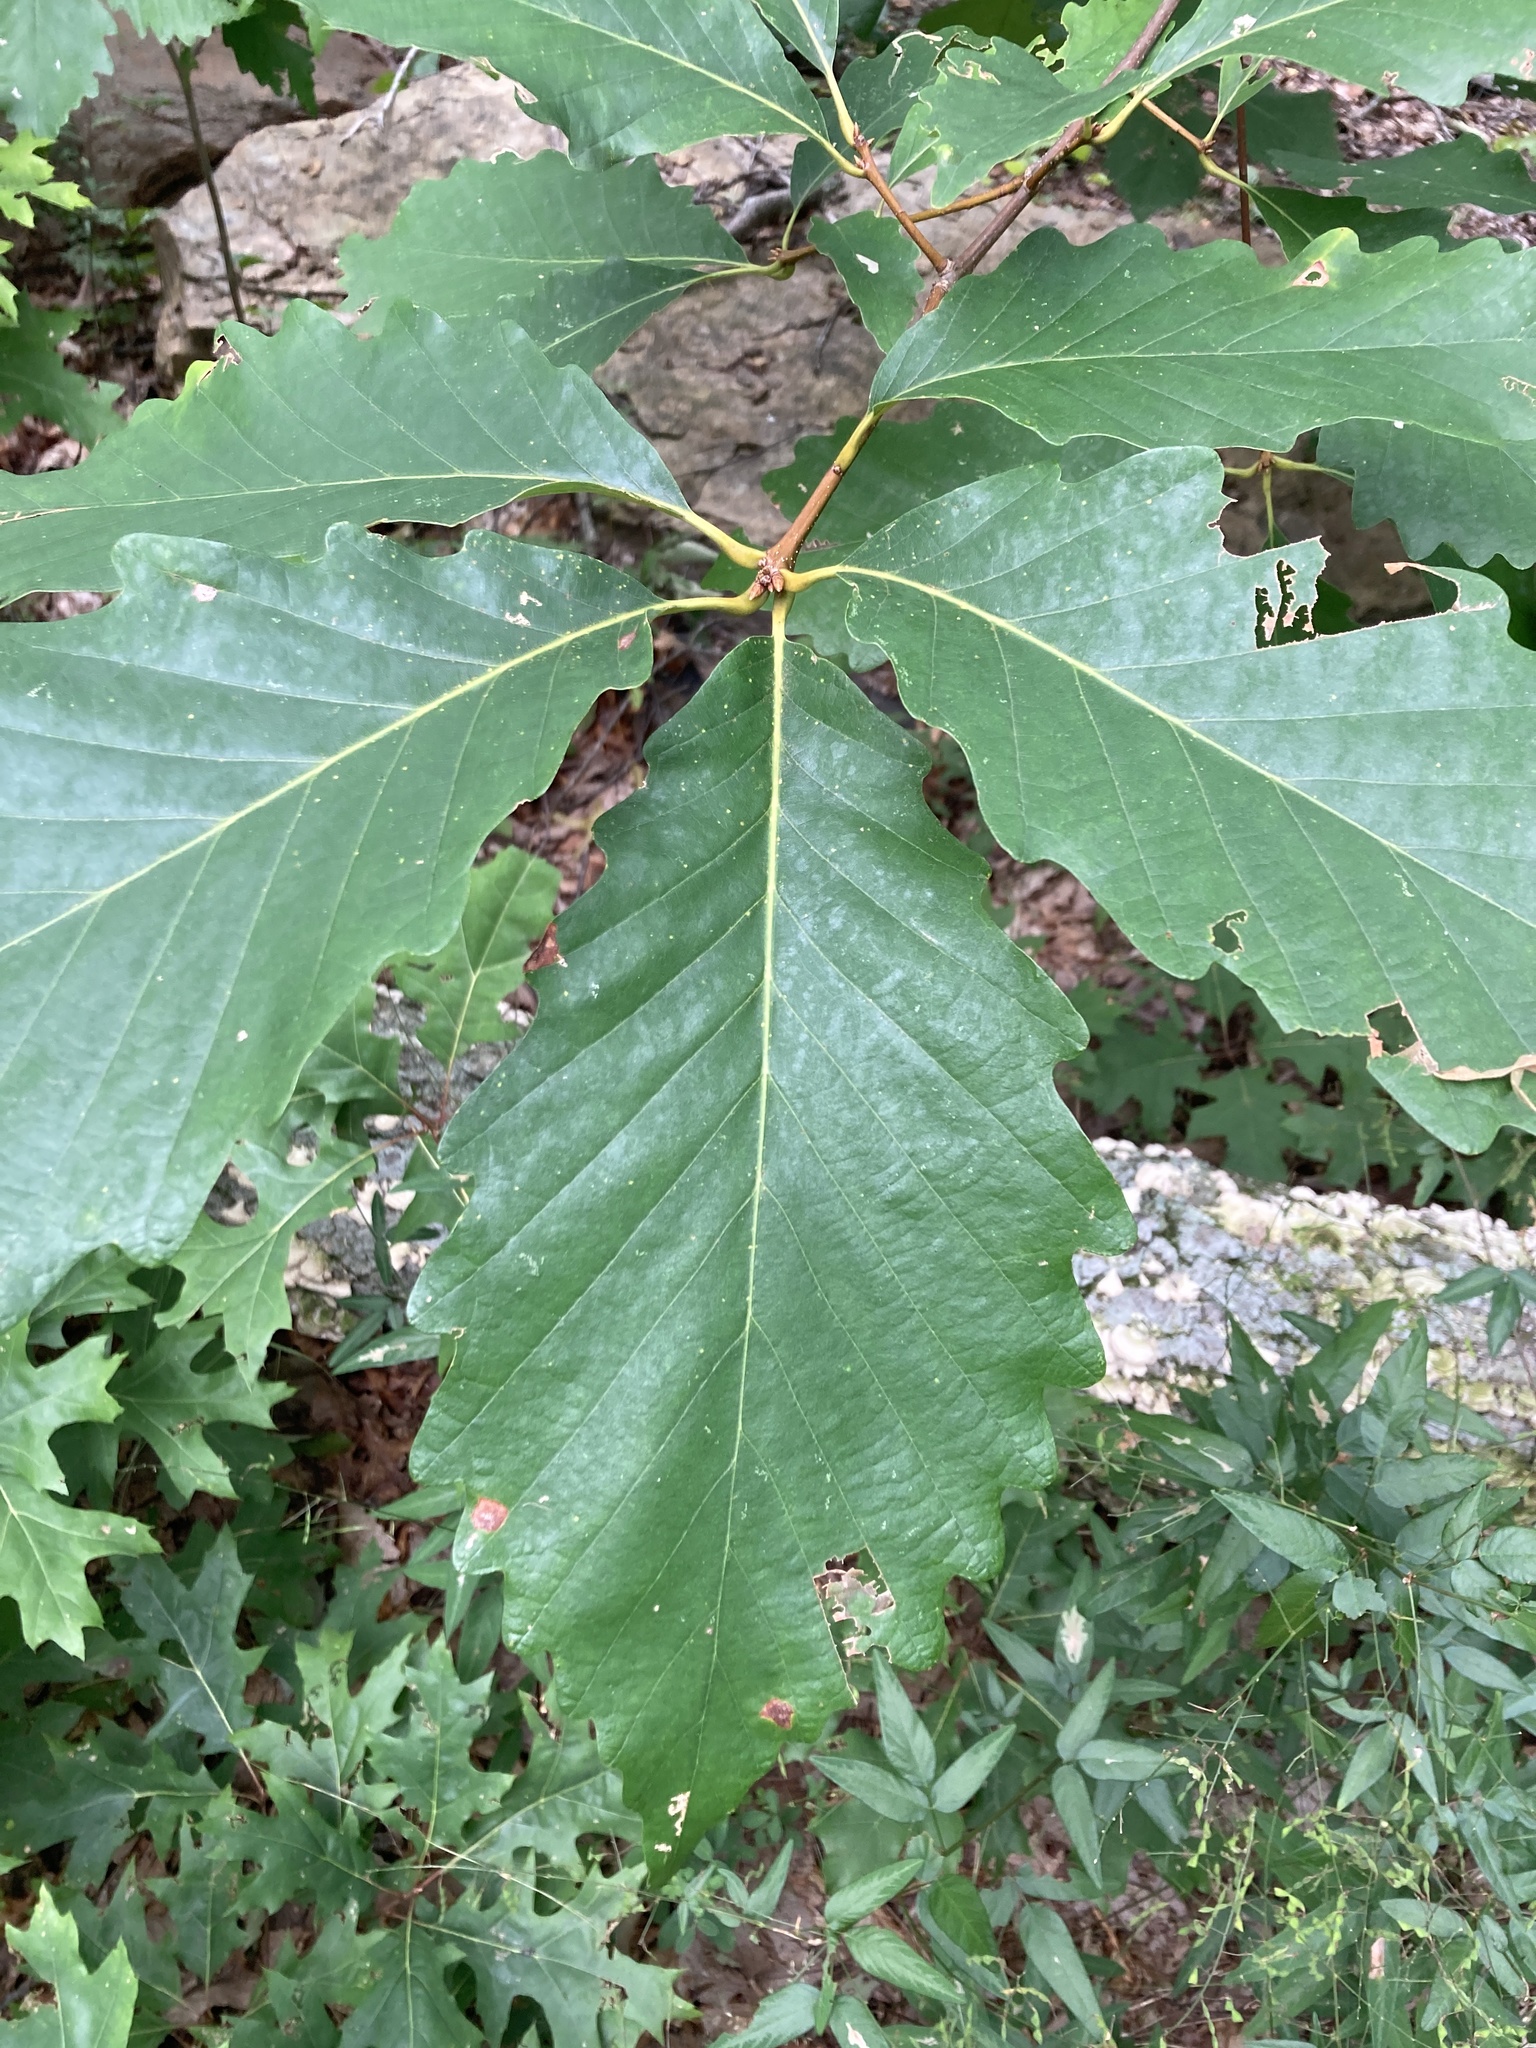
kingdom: Plantae
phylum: Tracheophyta
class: Magnoliopsida
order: Fagales
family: Fagaceae
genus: Quercus
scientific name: Quercus montana
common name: Chestnut oak
